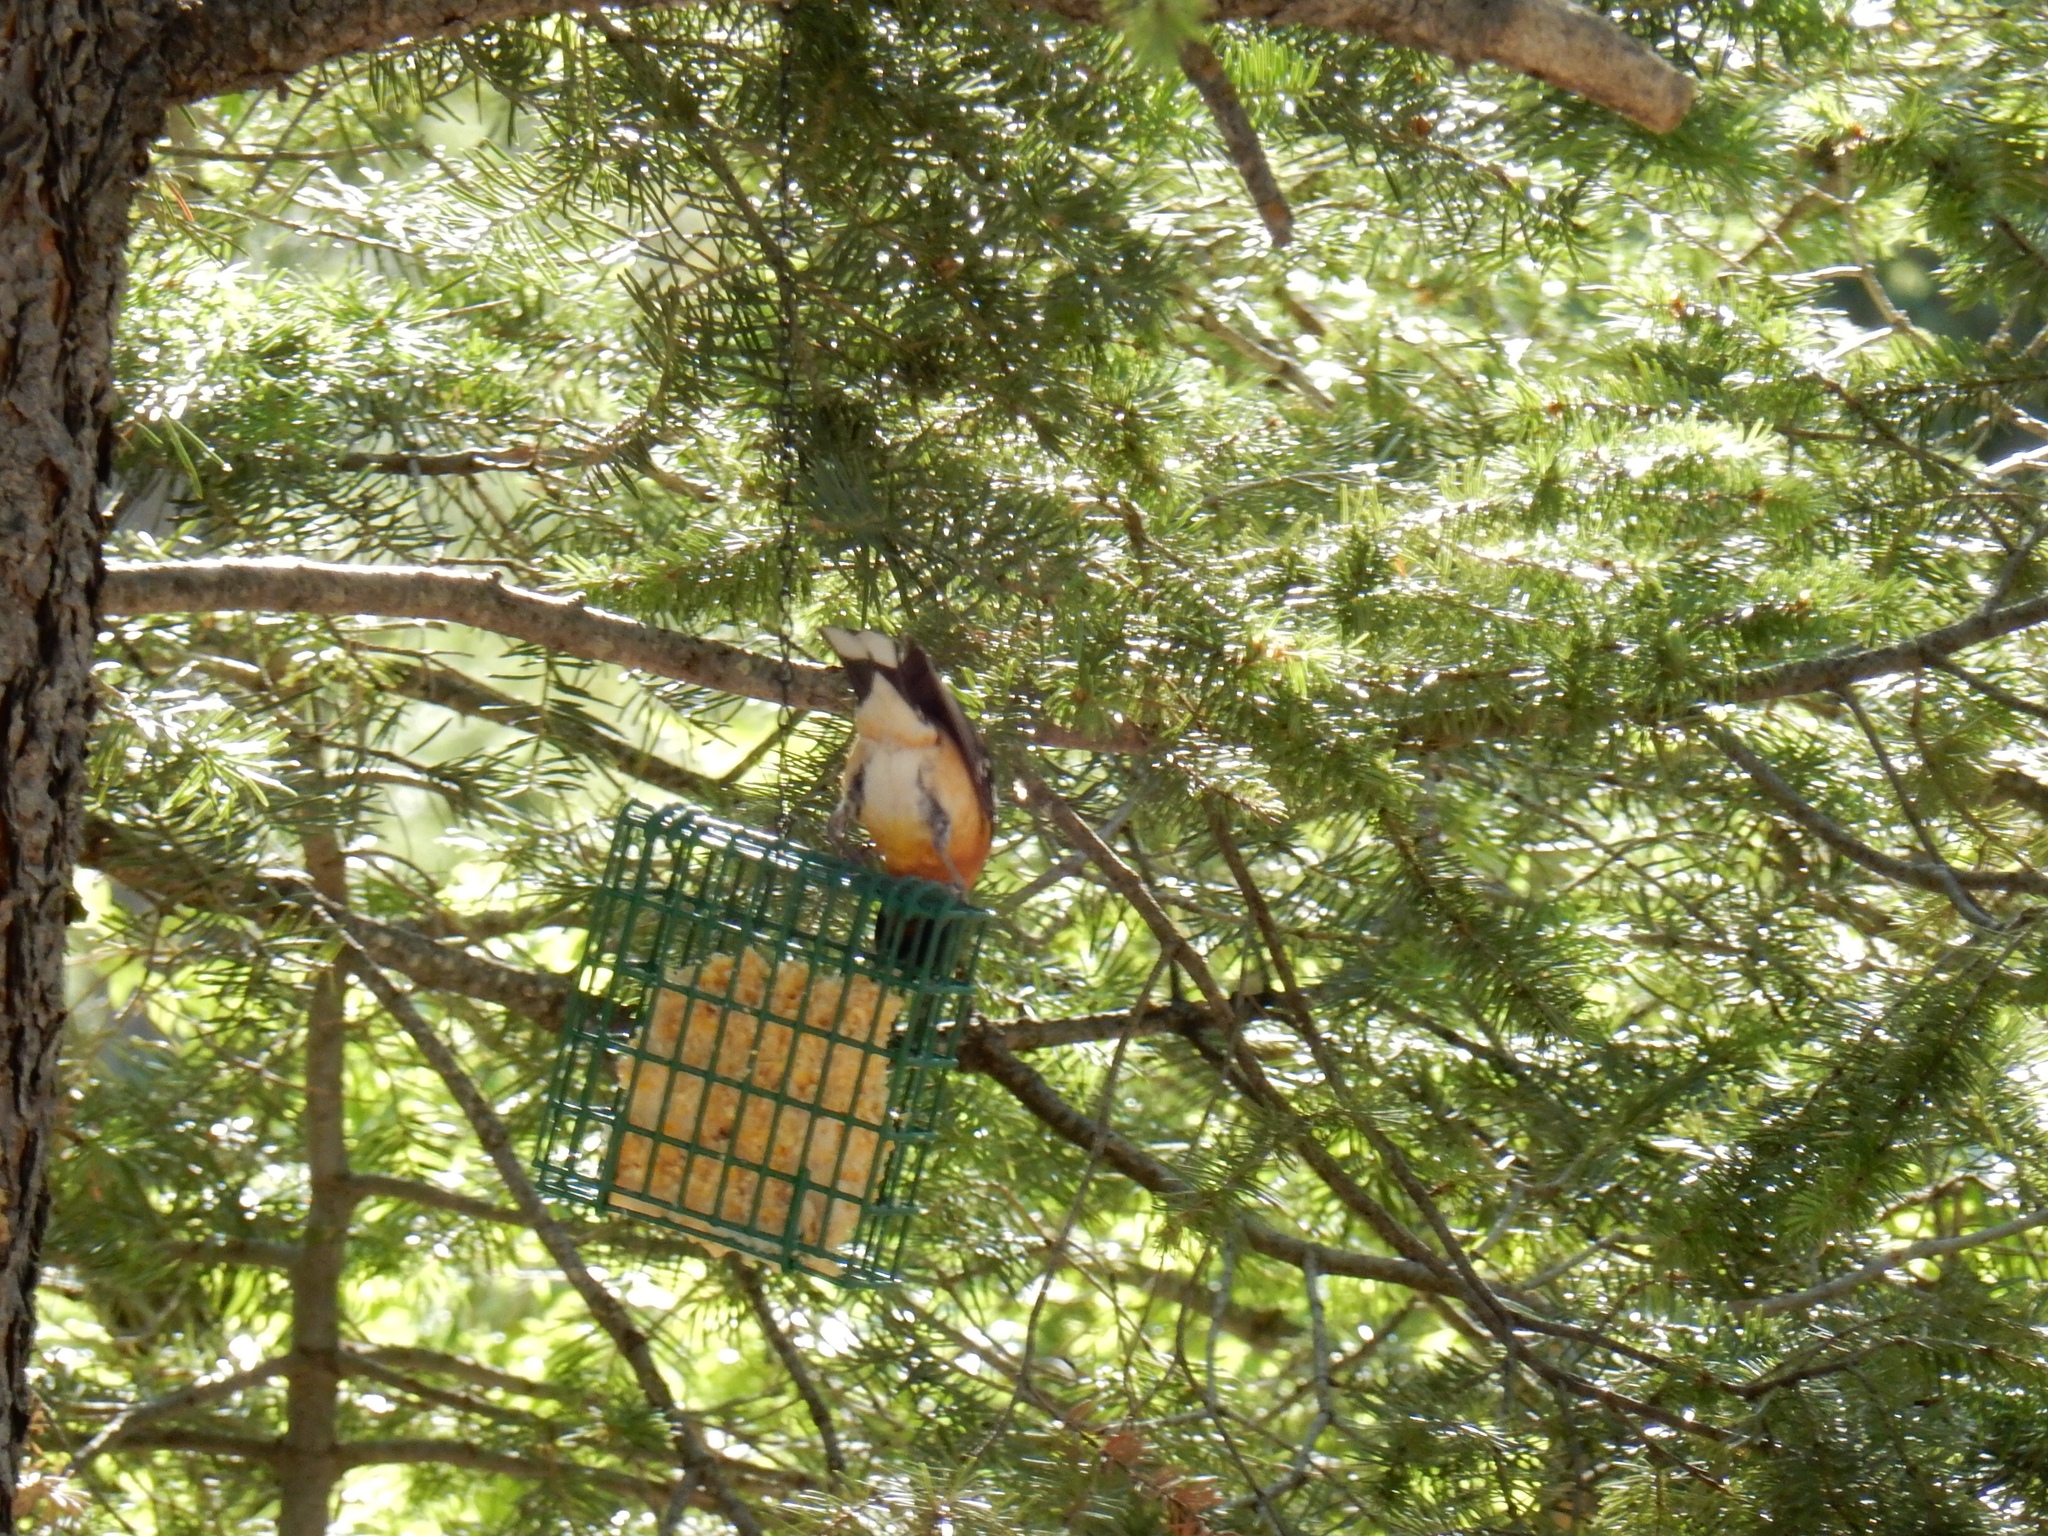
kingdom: Animalia
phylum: Chordata
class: Aves
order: Passeriformes
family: Cardinalidae
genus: Pheucticus
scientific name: Pheucticus melanocephalus
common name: Black-headed grosbeak
